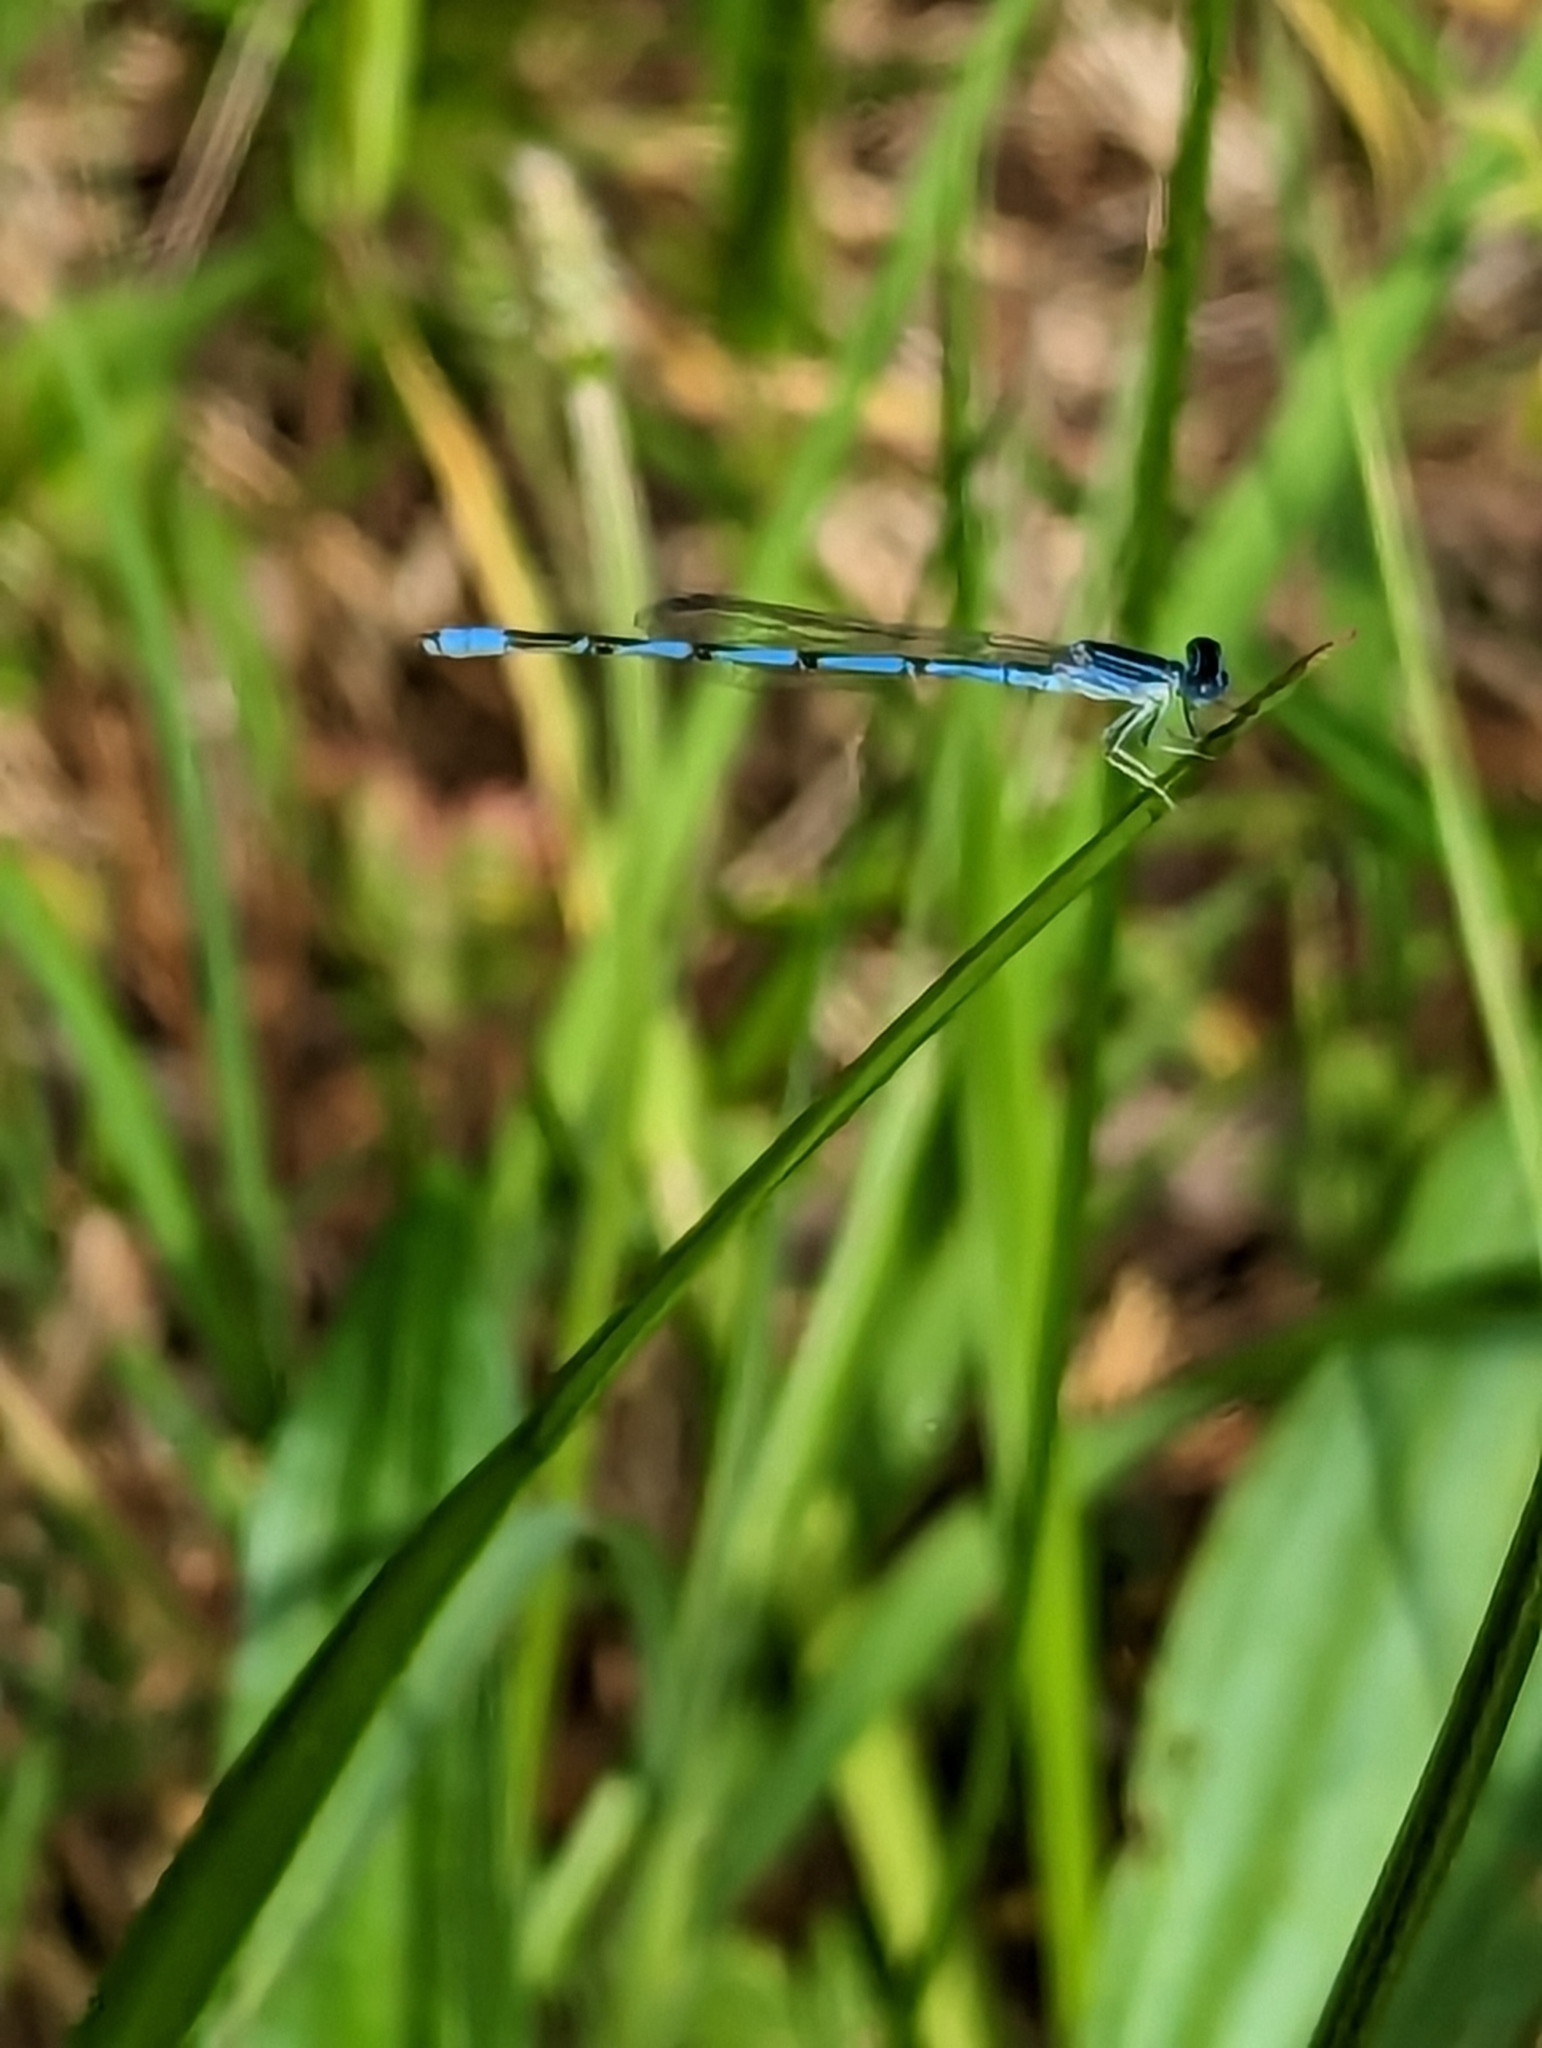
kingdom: Animalia
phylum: Arthropoda
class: Insecta
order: Odonata
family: Coenagrionidae
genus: Enallagma
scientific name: Enallagma basidens
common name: Double-striped bluet
